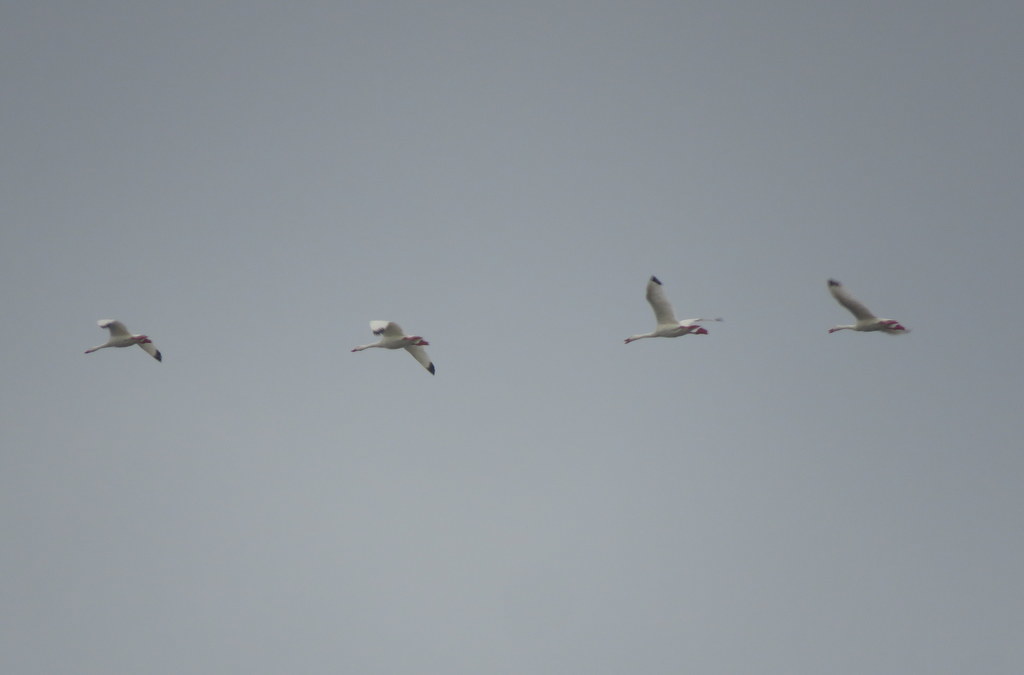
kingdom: Animalia
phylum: Chordata
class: Aves
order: Anseriformes
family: Anatidae
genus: Coscoroba
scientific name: Coscoroba coscoroba
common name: Coscoroba swan
